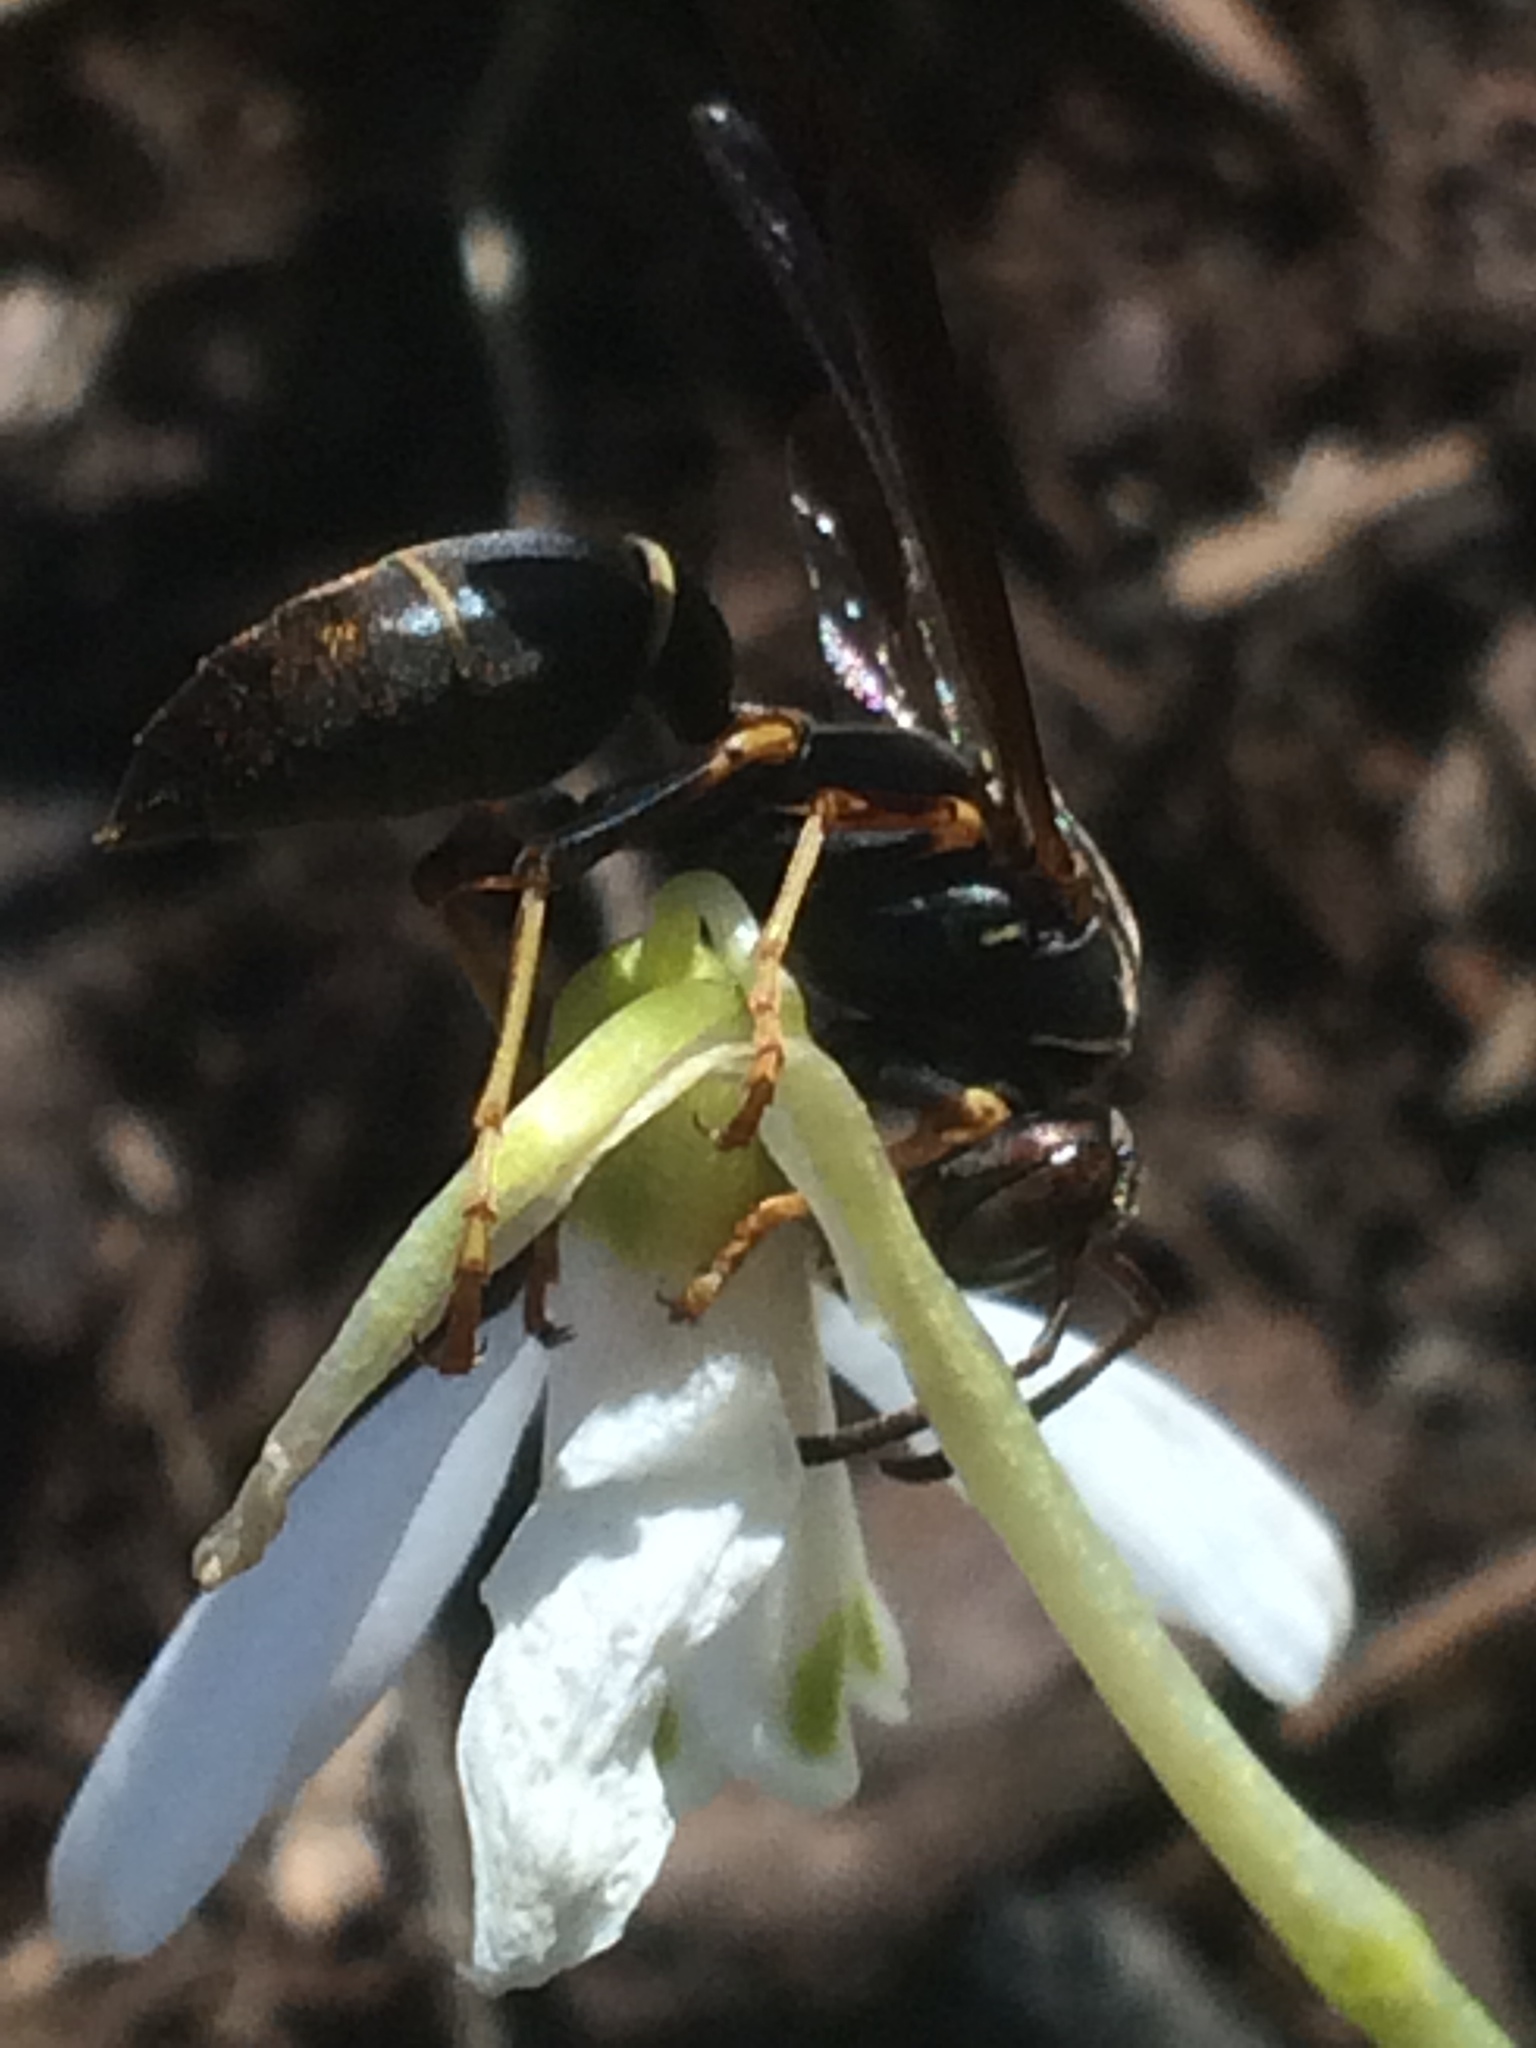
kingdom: Animalia
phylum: Arthropoda
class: Insecta
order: Hymenoptera
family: Eumenidae
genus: Polistes
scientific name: Polistes fuscatus
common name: Dark paper wasp
